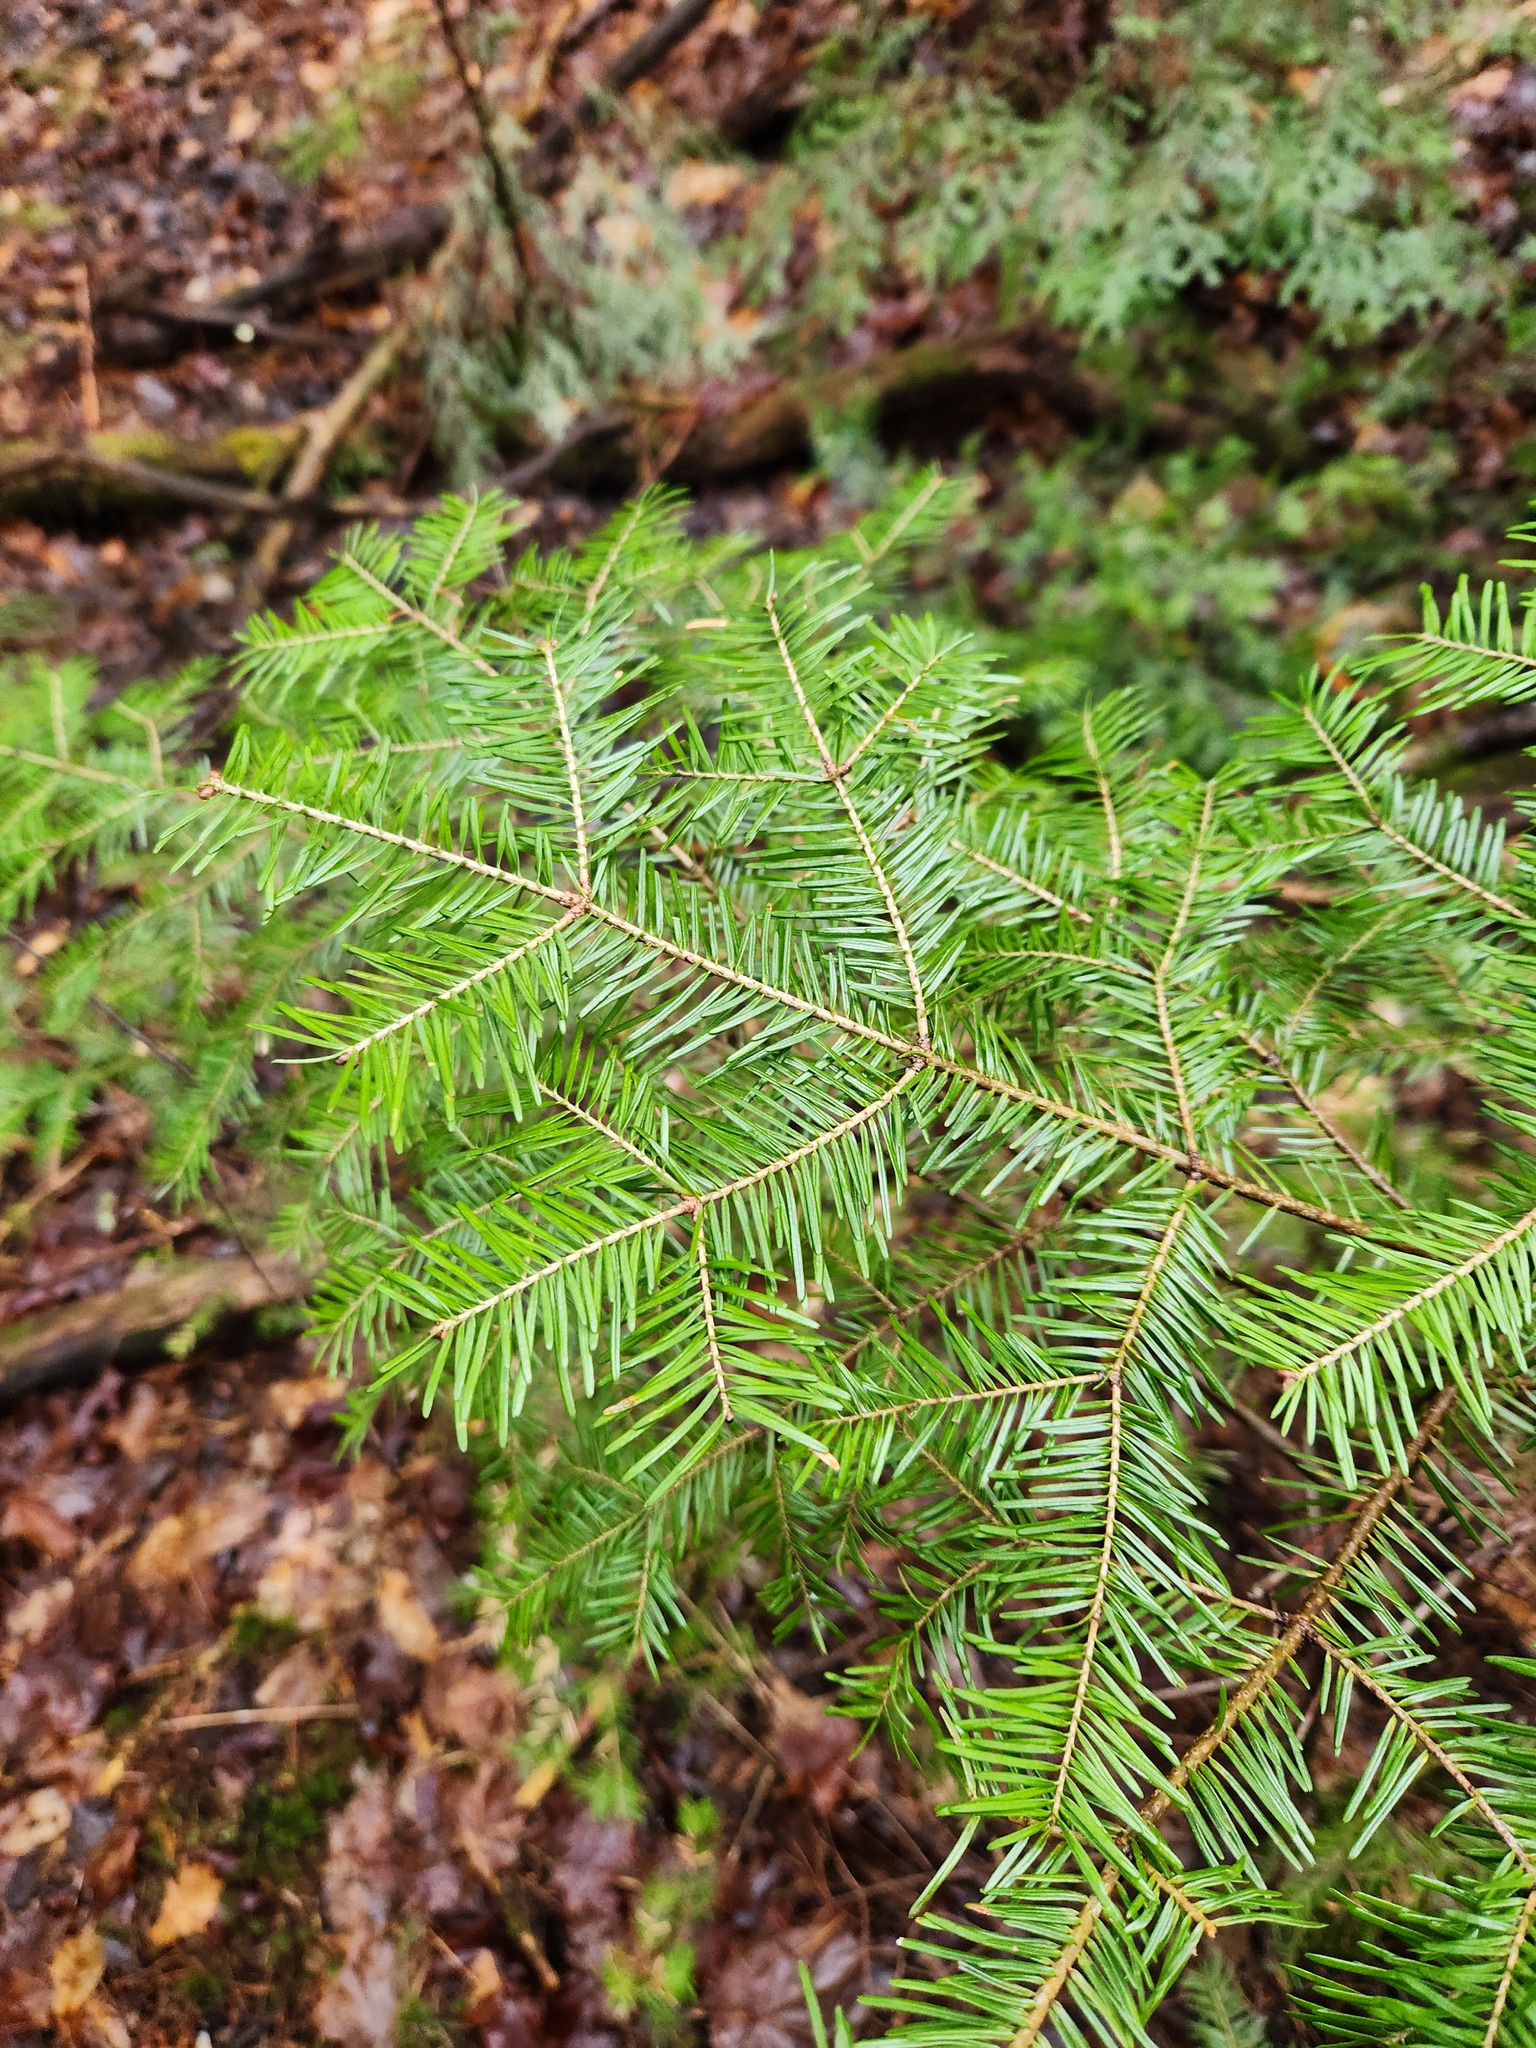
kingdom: Plantae
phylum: Tracheophyta
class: Pinopsida
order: Pinales
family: Pinaceae
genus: Abies
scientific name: Abies balsamea
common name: Balsam fir
